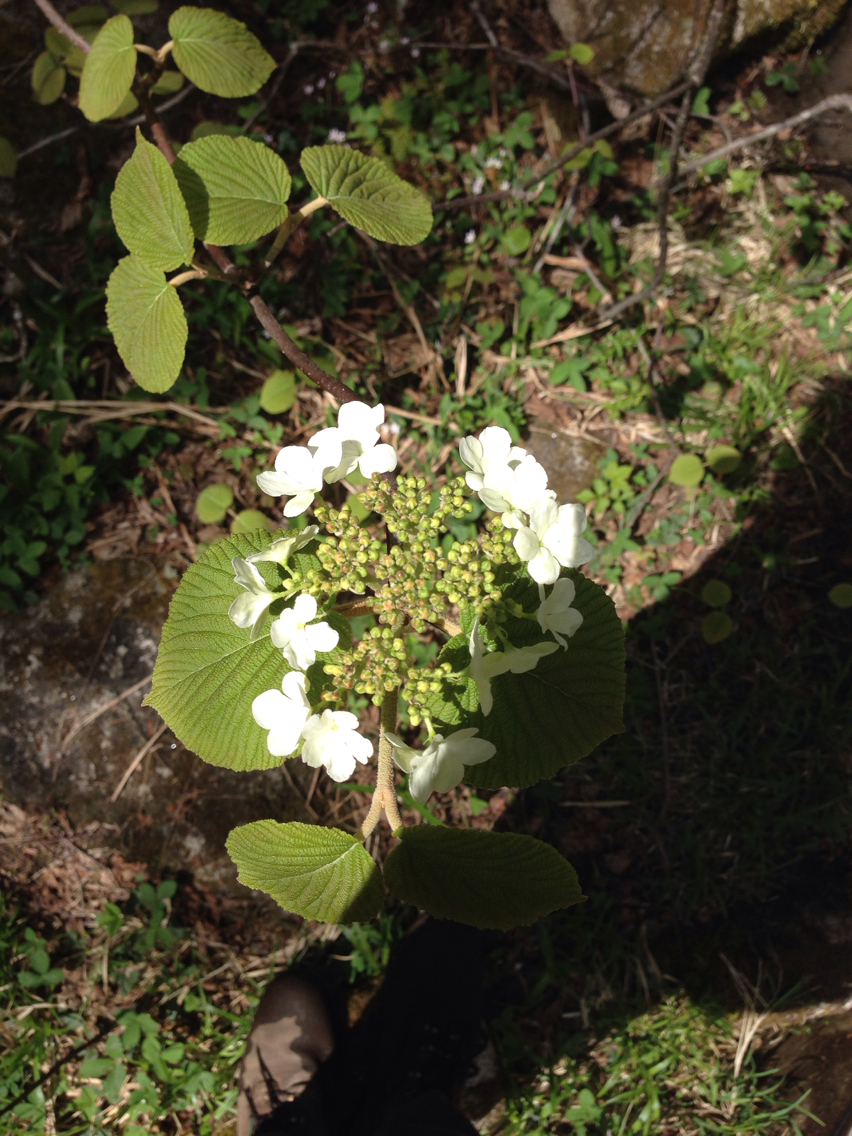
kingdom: Plantae
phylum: Tracheophyta
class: Magnoliopsida
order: Dipsacales
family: Viburnaceae
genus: Viburnum
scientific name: Viburnum lantanoides
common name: Hobblebush
